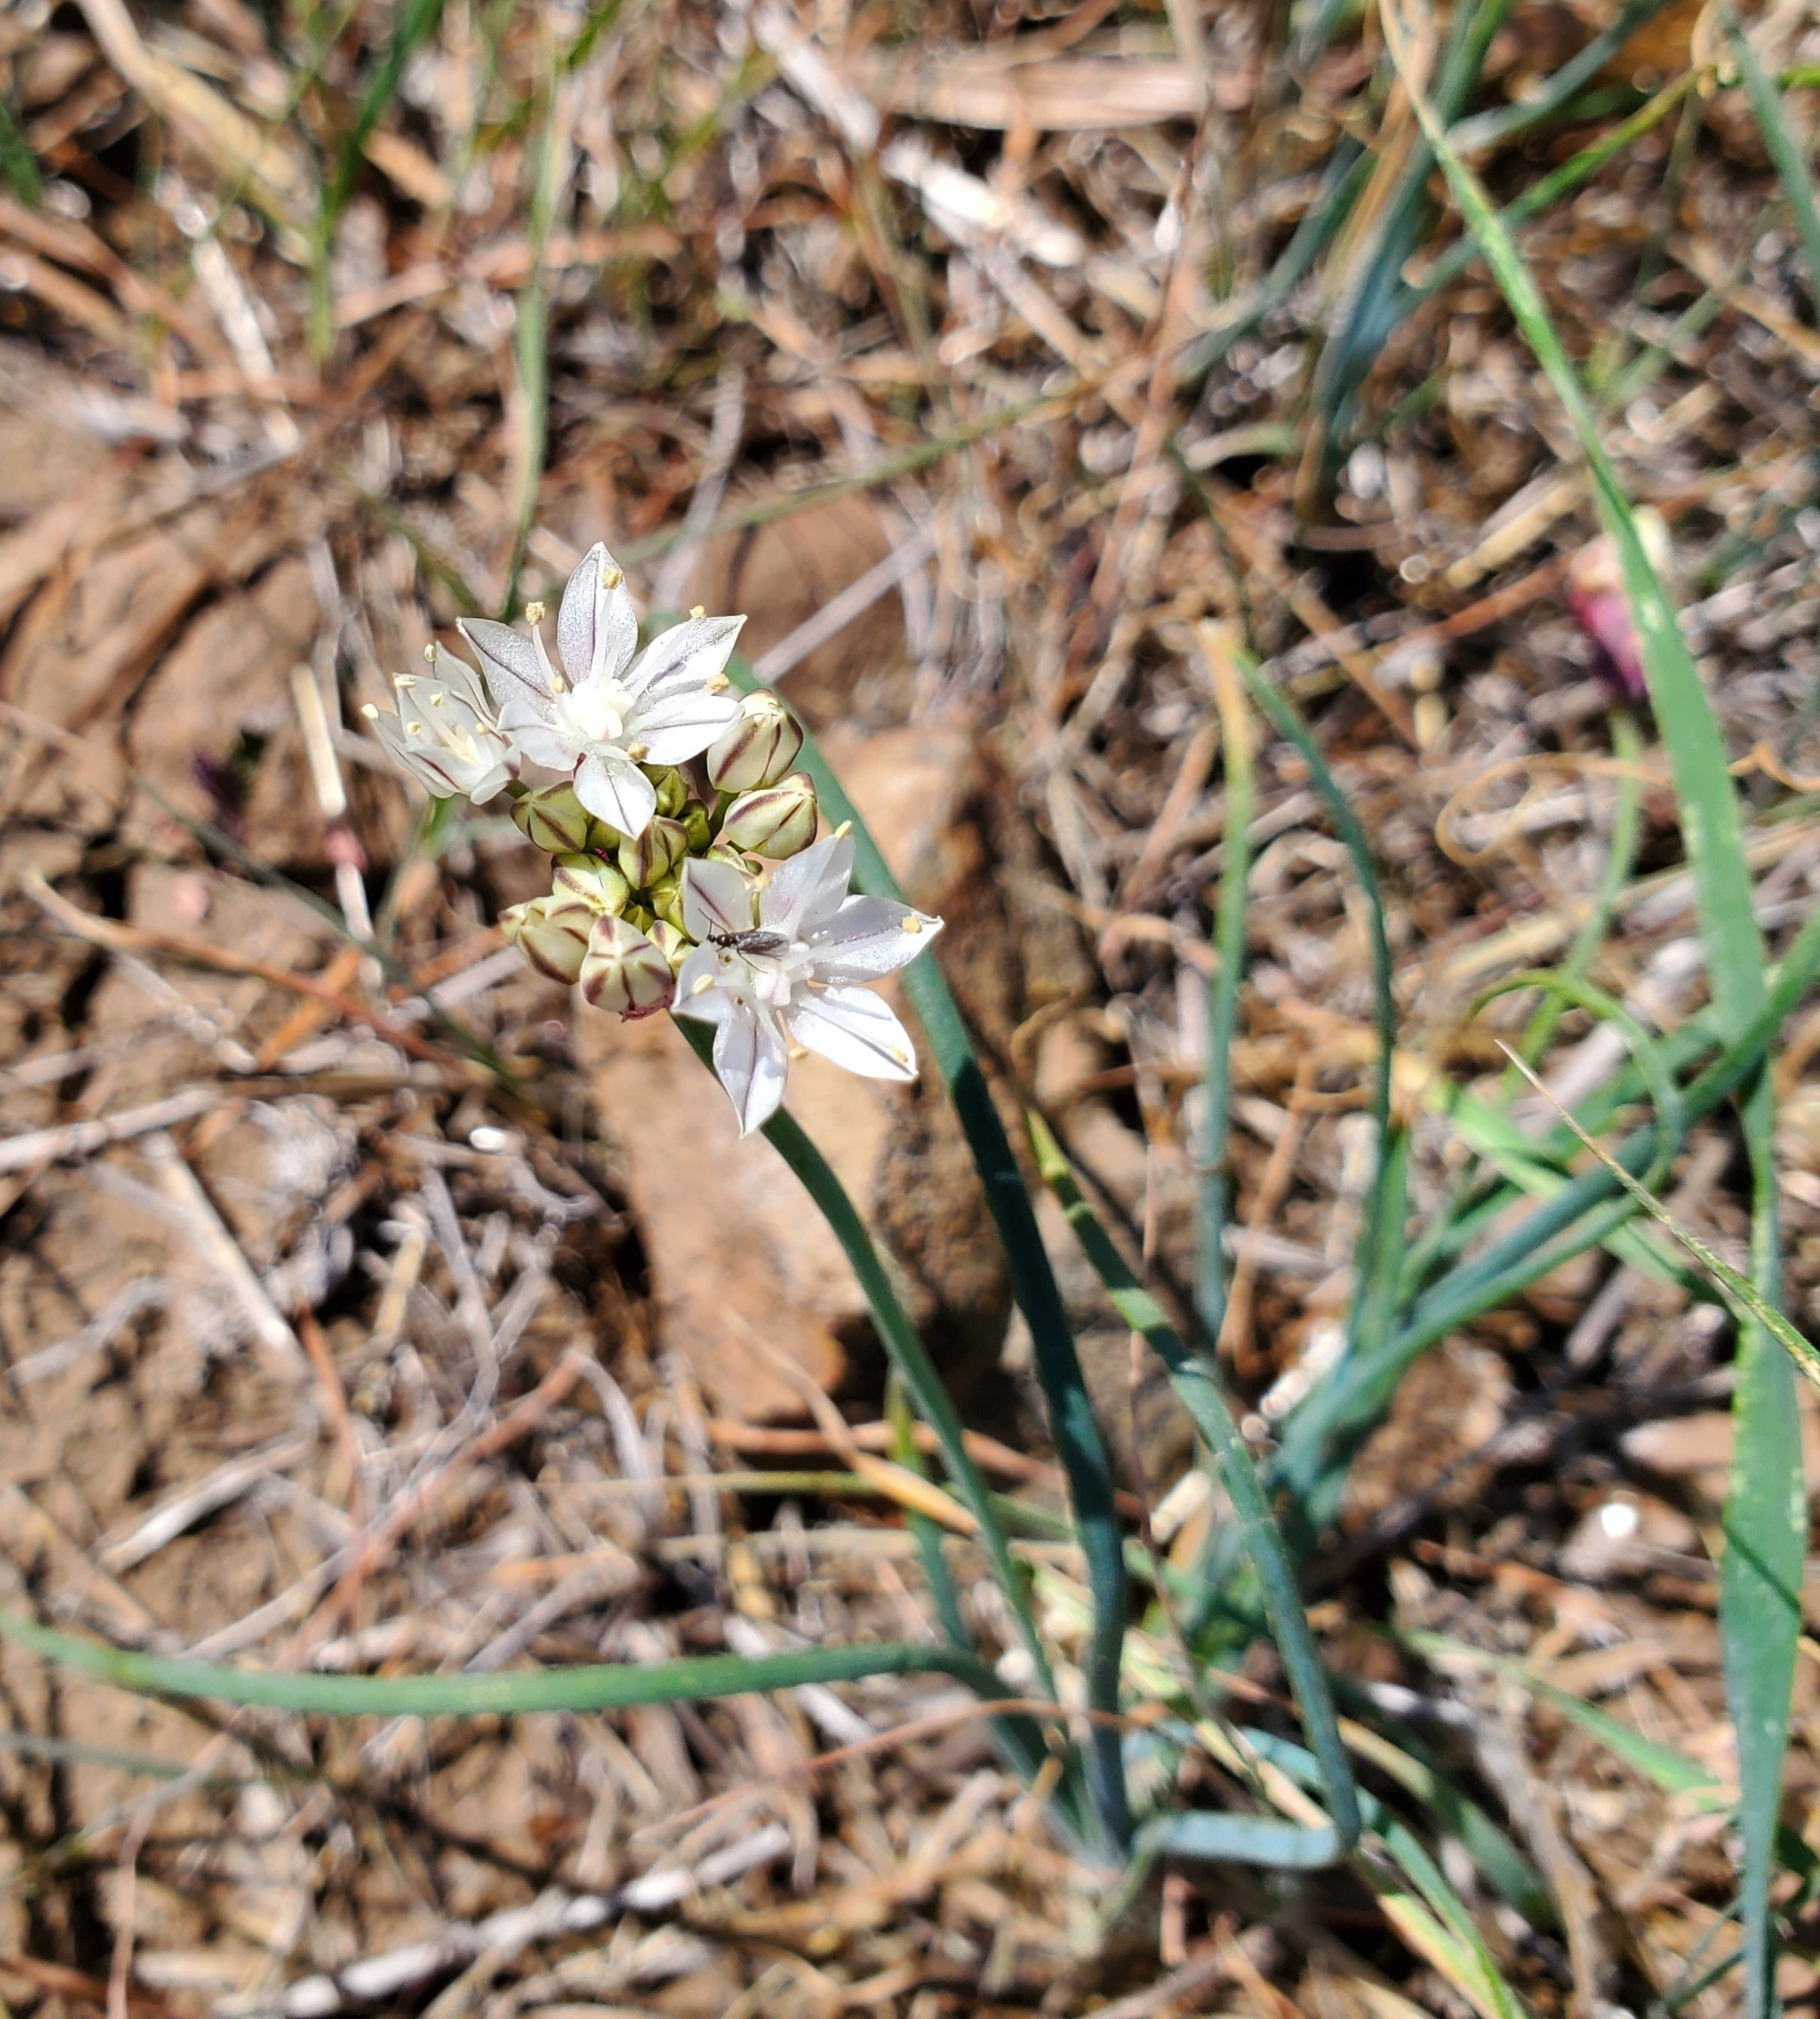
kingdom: Plantae
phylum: Tracheophyta
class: Liliopsida
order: Asparagales
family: Amaryllidaceae
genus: Allium
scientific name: Allium haematochiton
